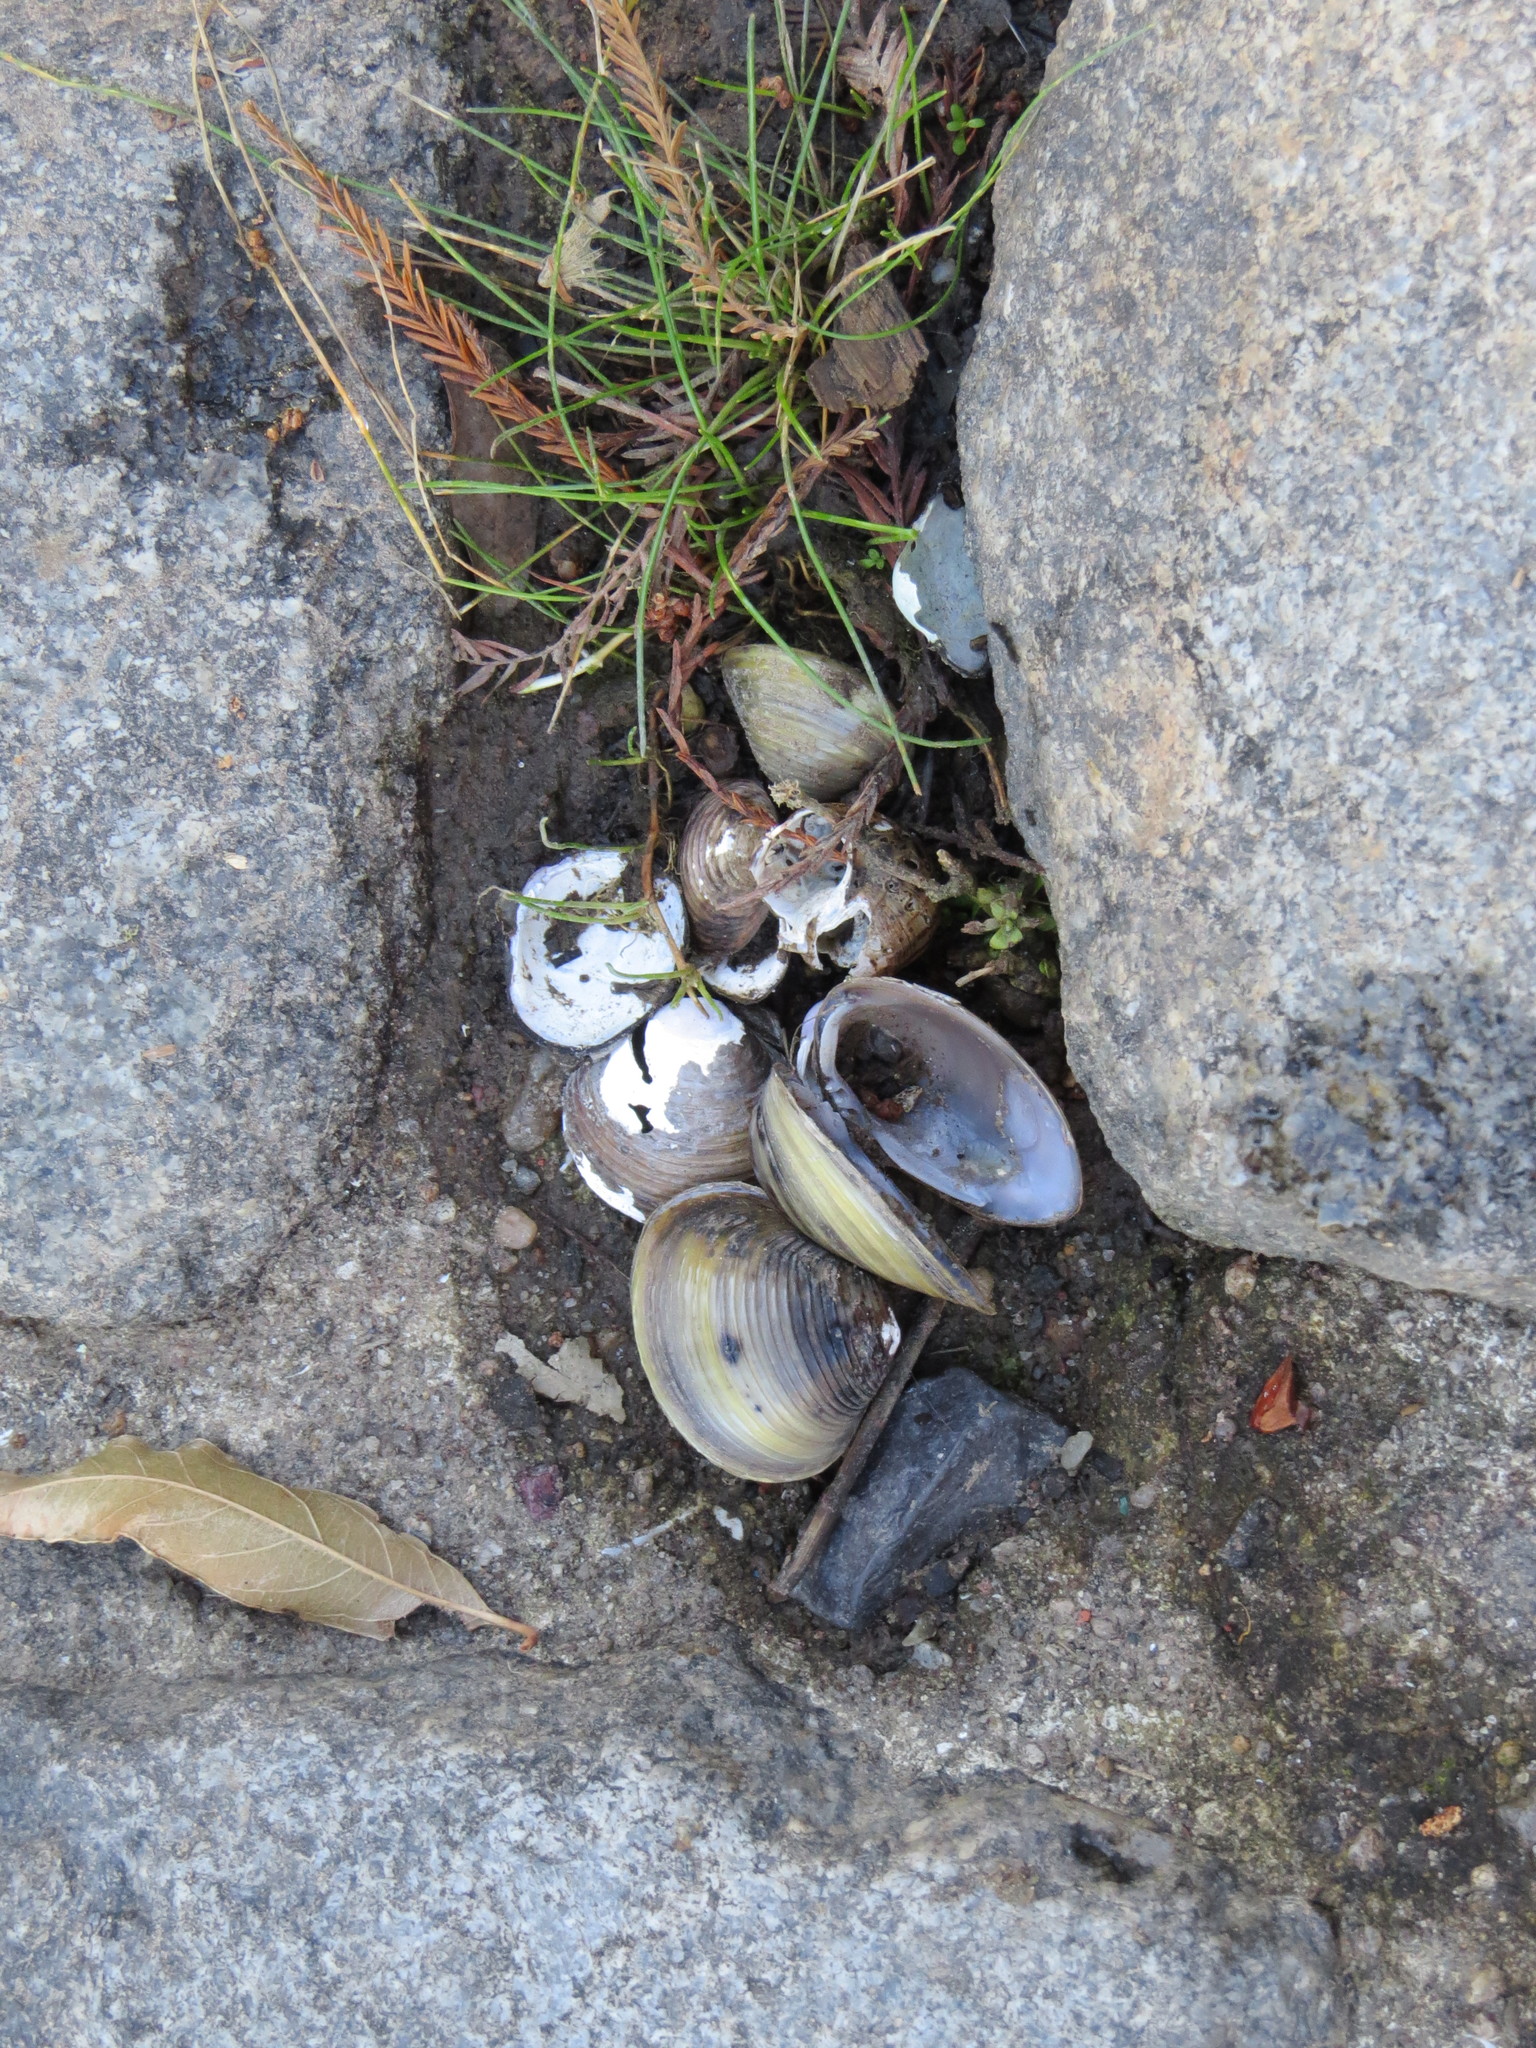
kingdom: Animalia
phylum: Mollusca
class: Bivalvia
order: Venerida
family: Cyrenidae
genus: Corbicula
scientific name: Corbicula fluminea
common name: Asian clam
